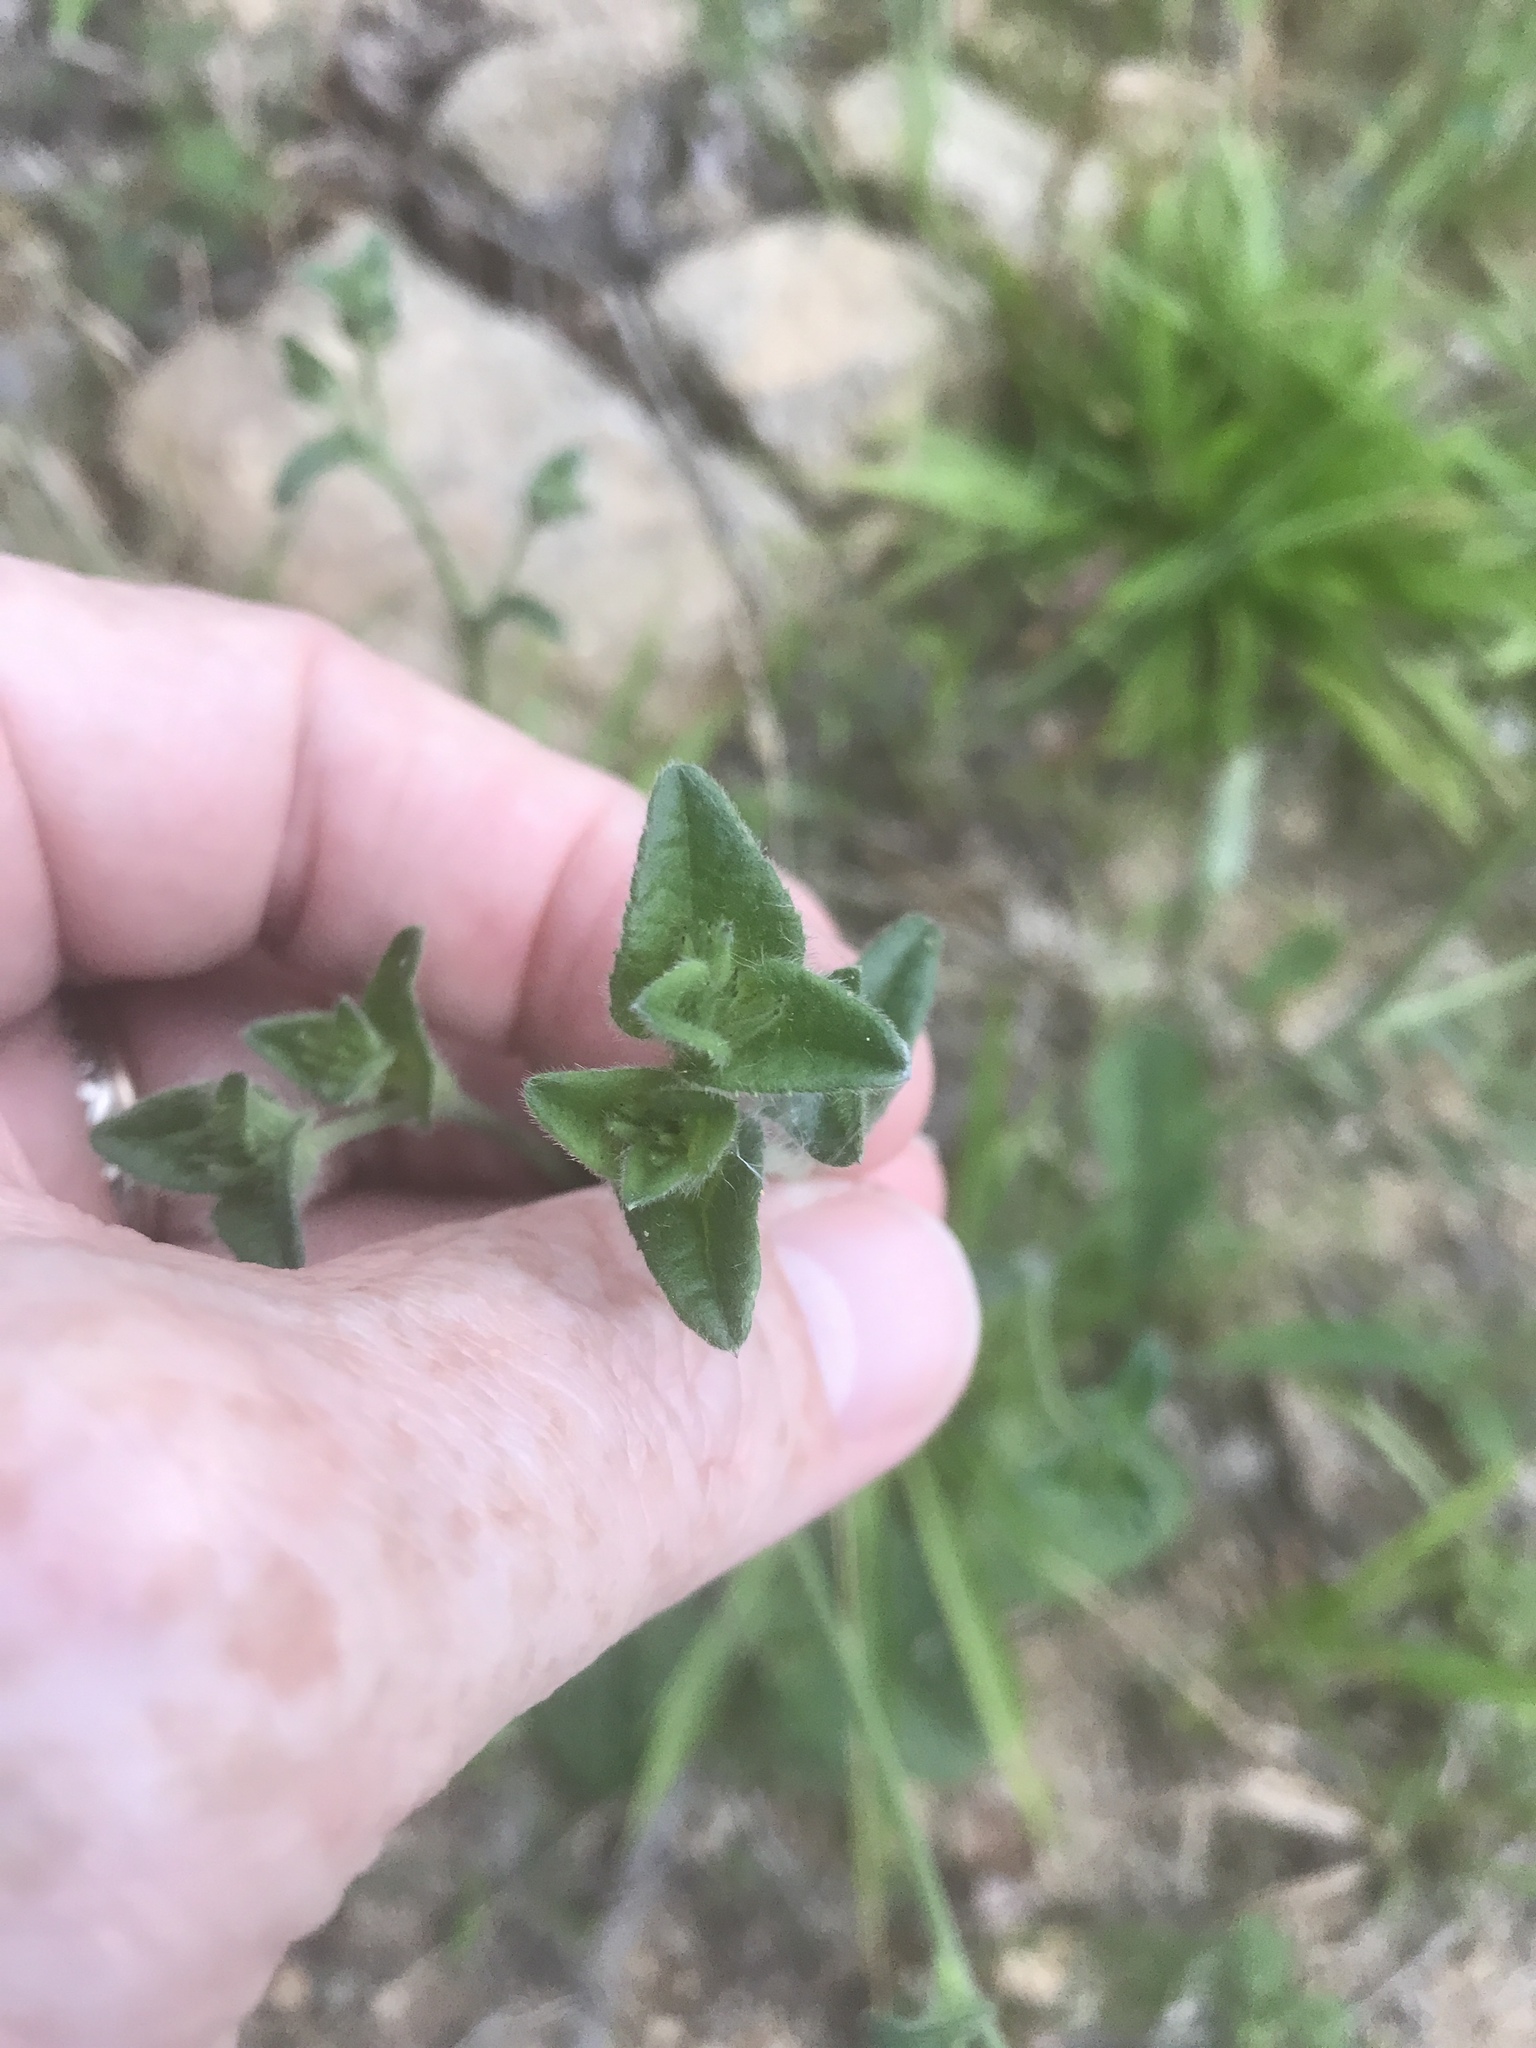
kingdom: Plantae
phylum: Tracheophyta
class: Magnoliopsida
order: Asterales
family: Asteraceae
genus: Elephantopus
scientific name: Elephantopus tomentosus
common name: Tobacco-weed
